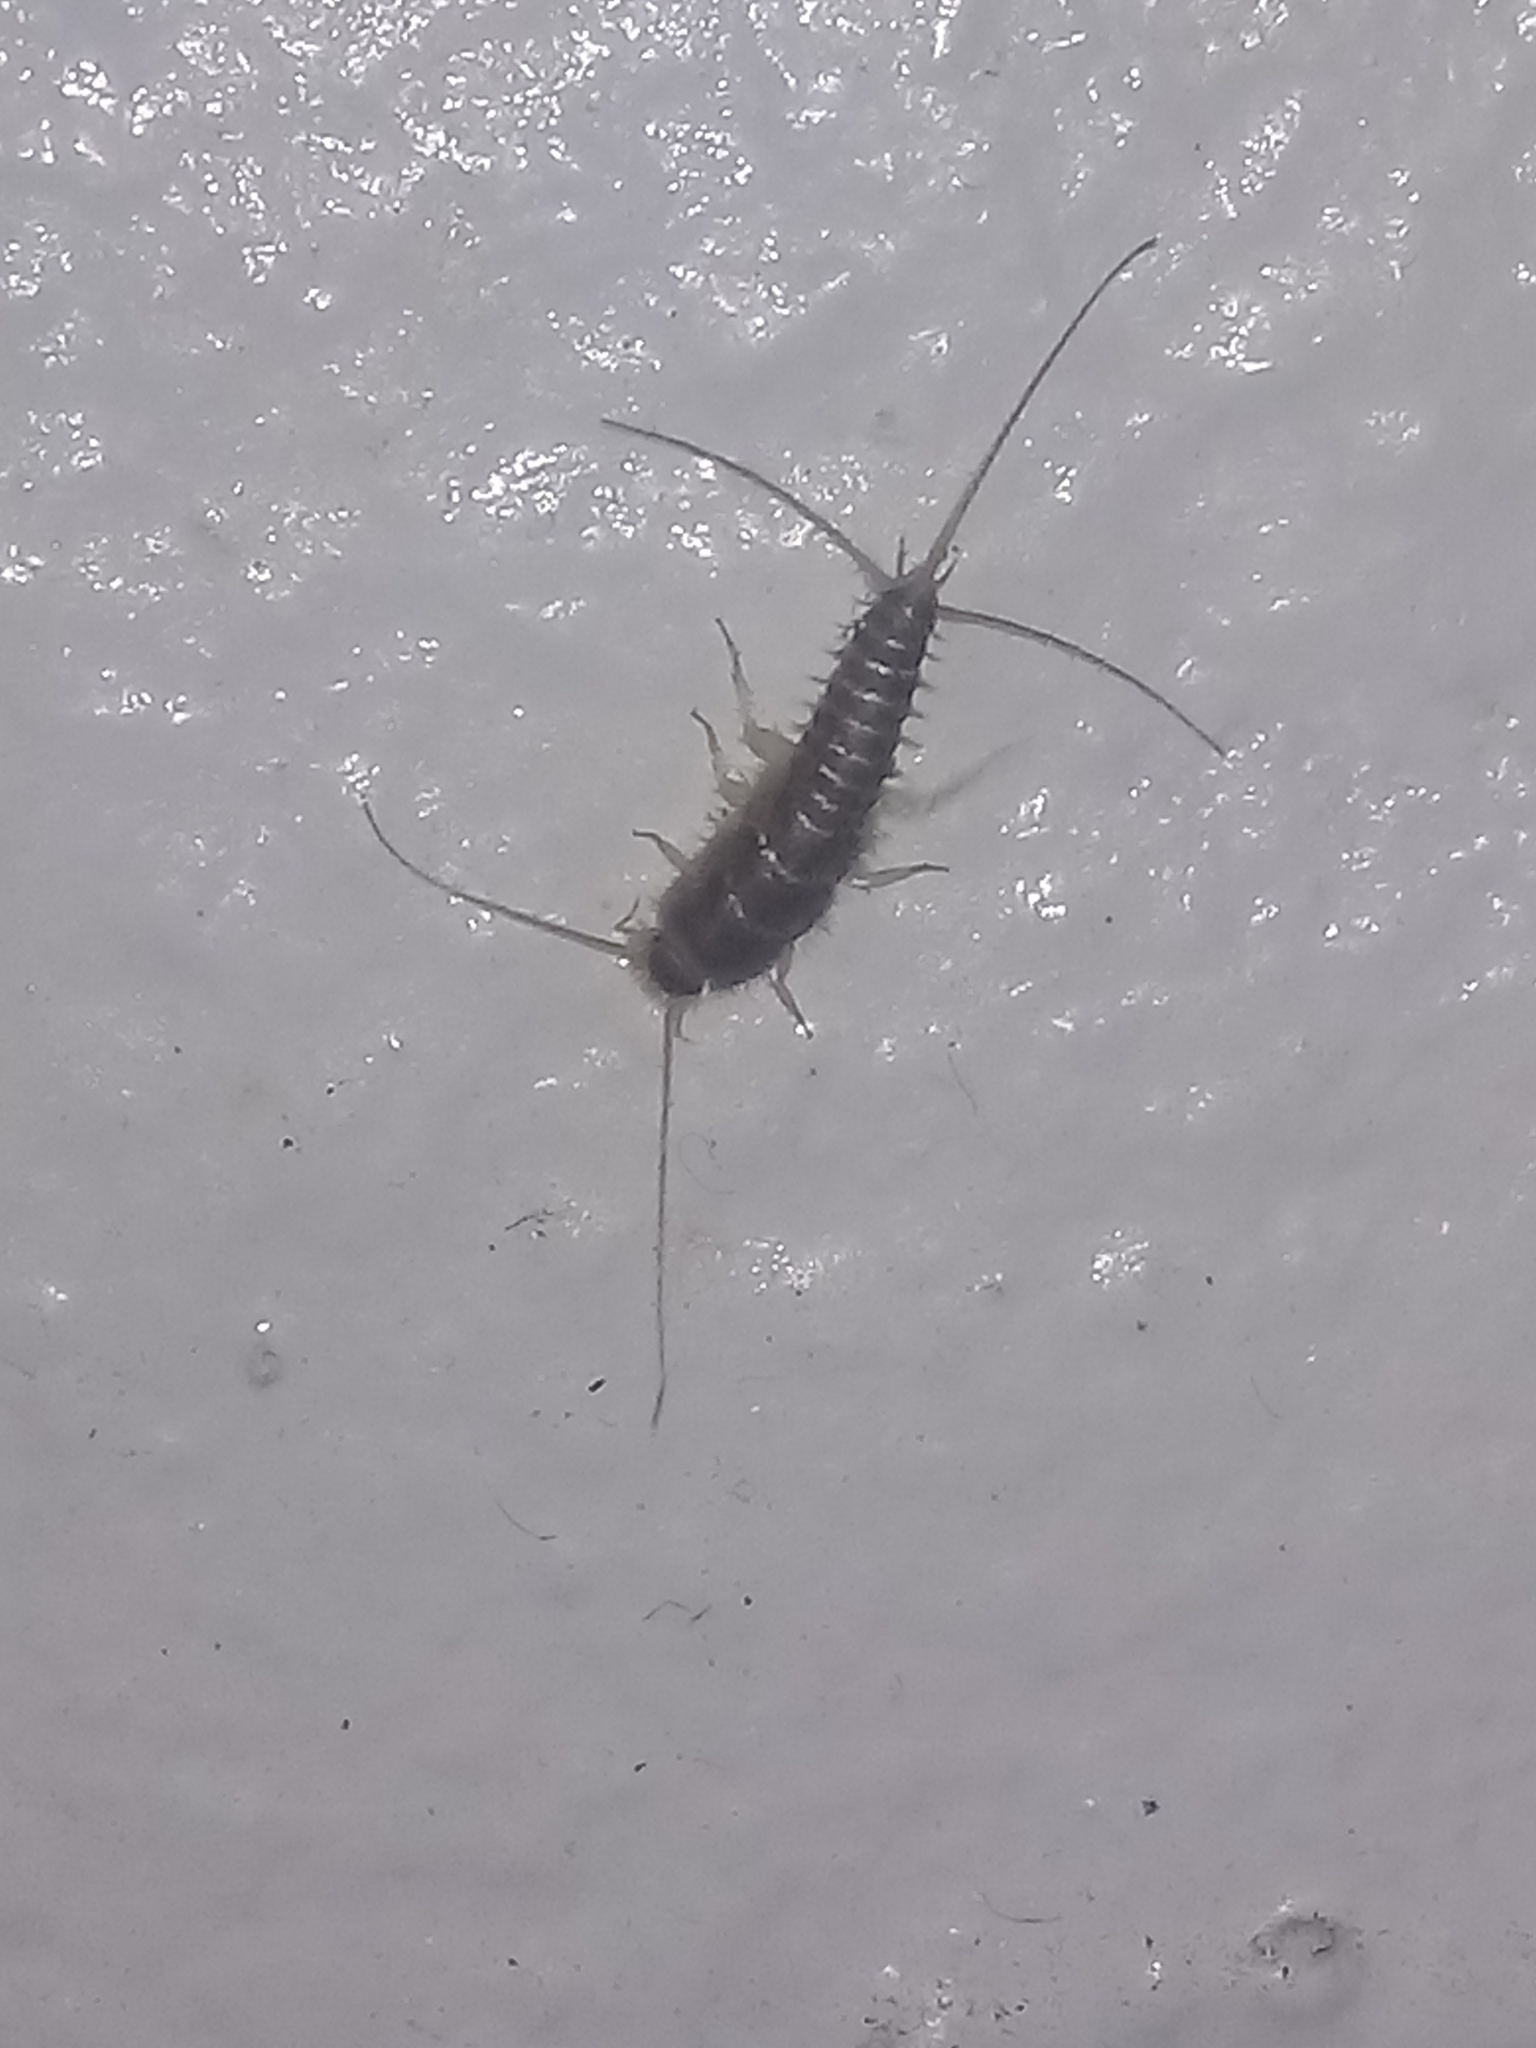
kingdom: Animalia
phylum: Arthropoda
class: Insecta
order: Zygentoma
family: Lepismatidae
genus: Ctenolepisma
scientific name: Ctenolepisma longicaudatum
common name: Silverfish
